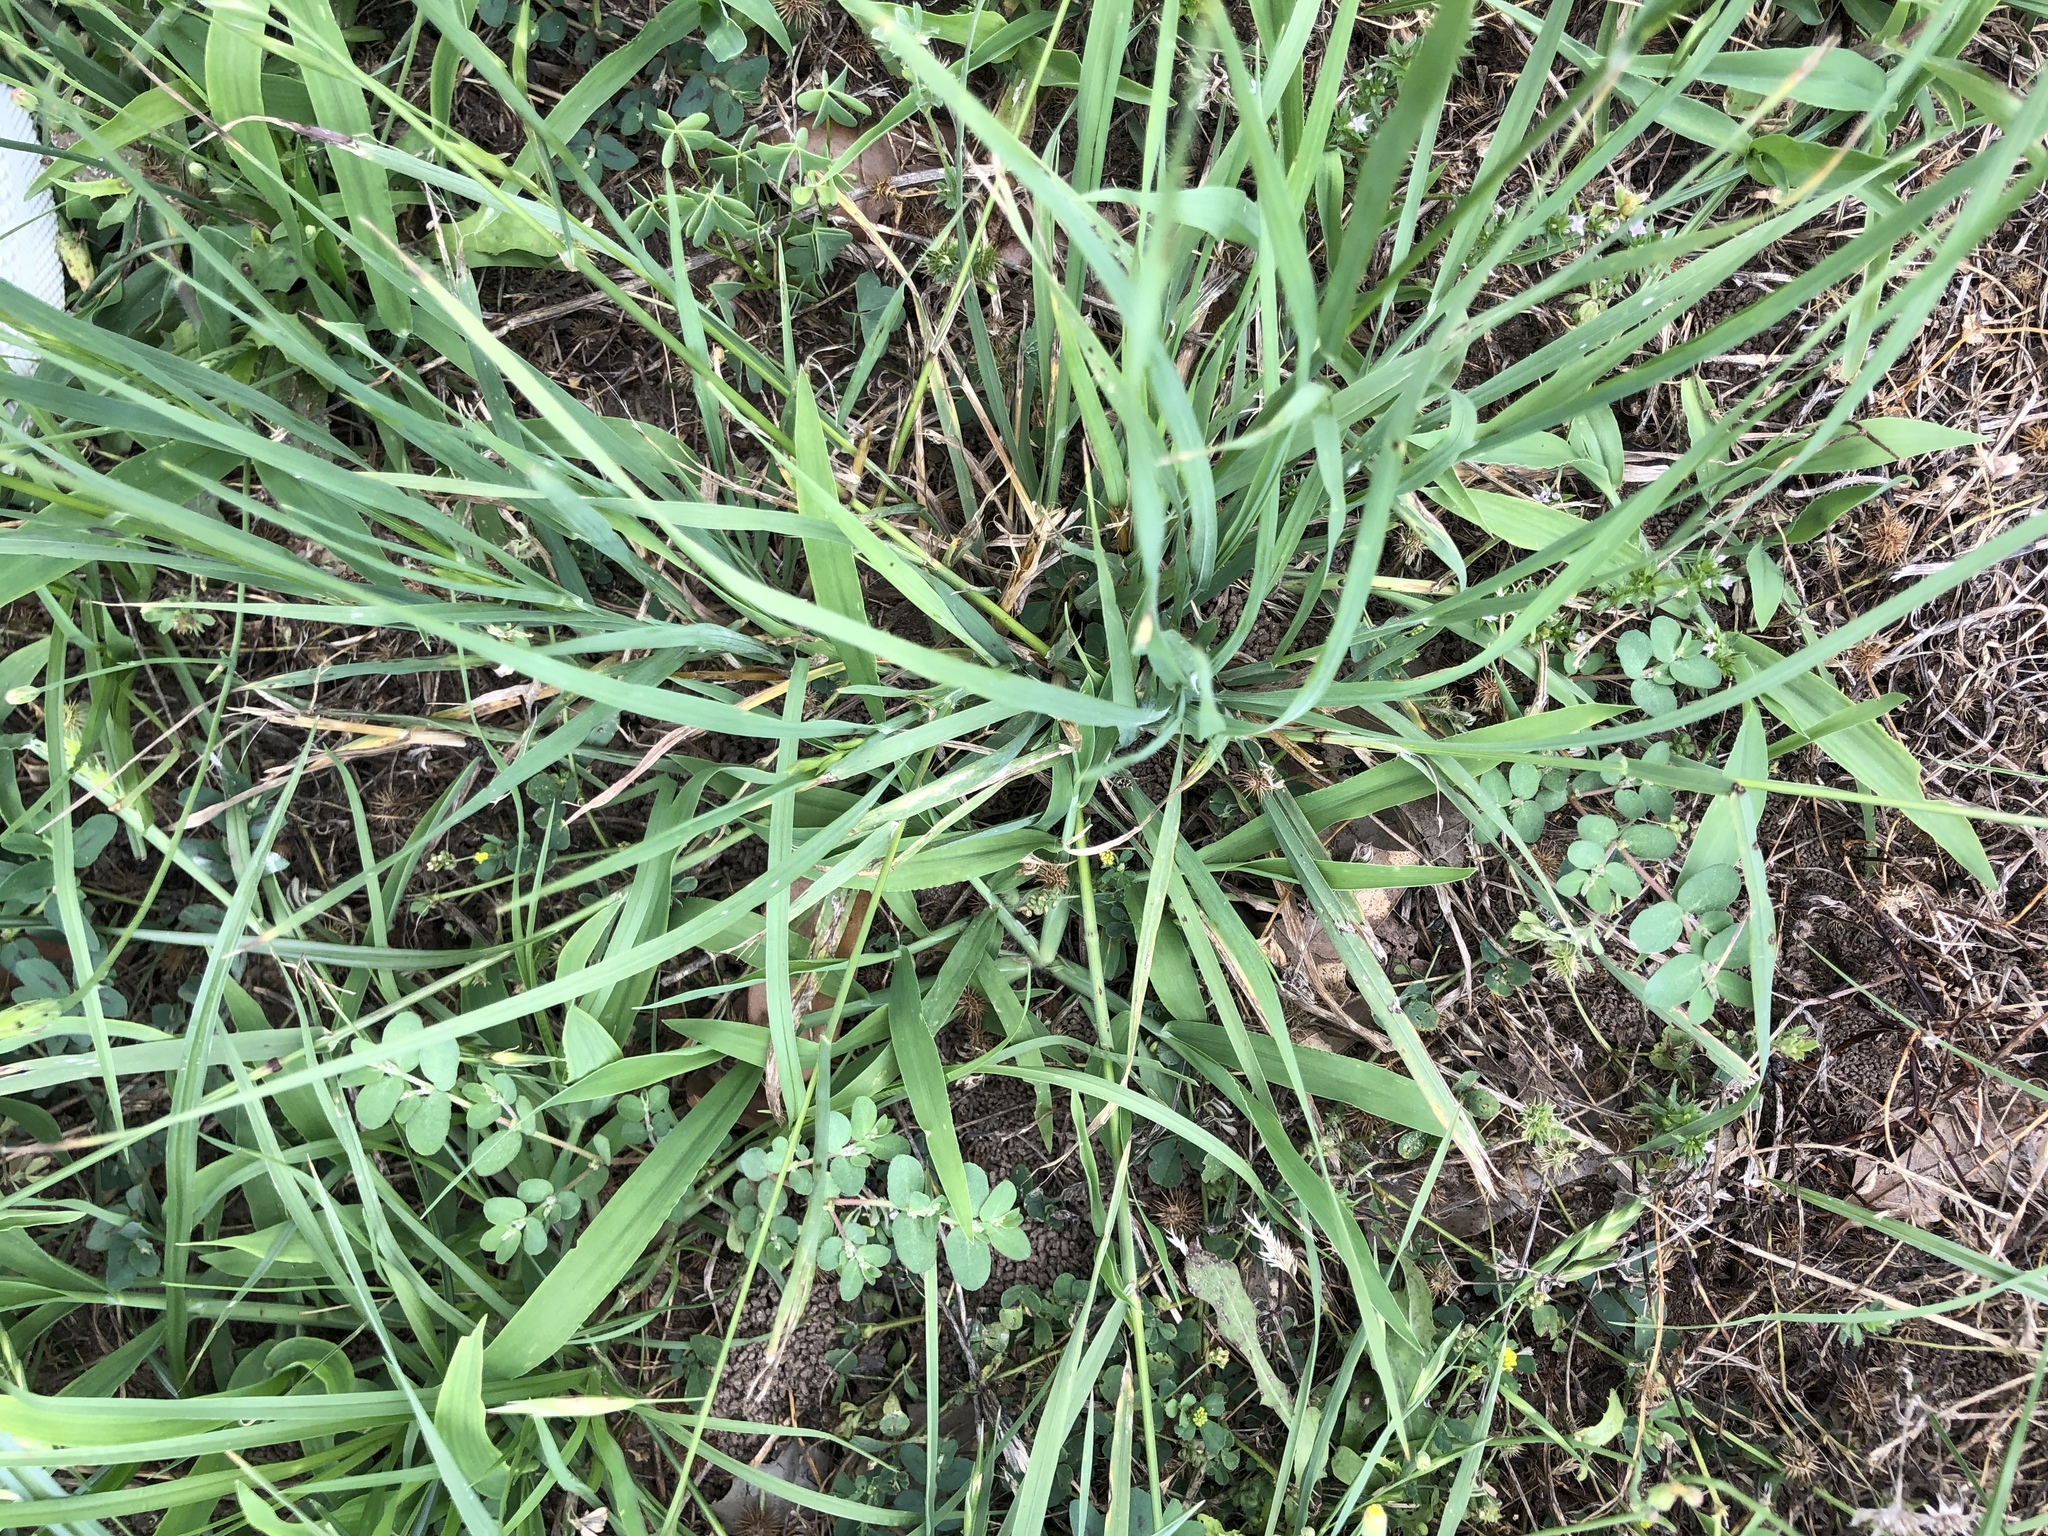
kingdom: Plantae
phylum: Tracheophyta
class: Liliopsida
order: Poales
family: Poaceae
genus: Bromus
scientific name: Bromus catharticus
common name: Rescuegrass
